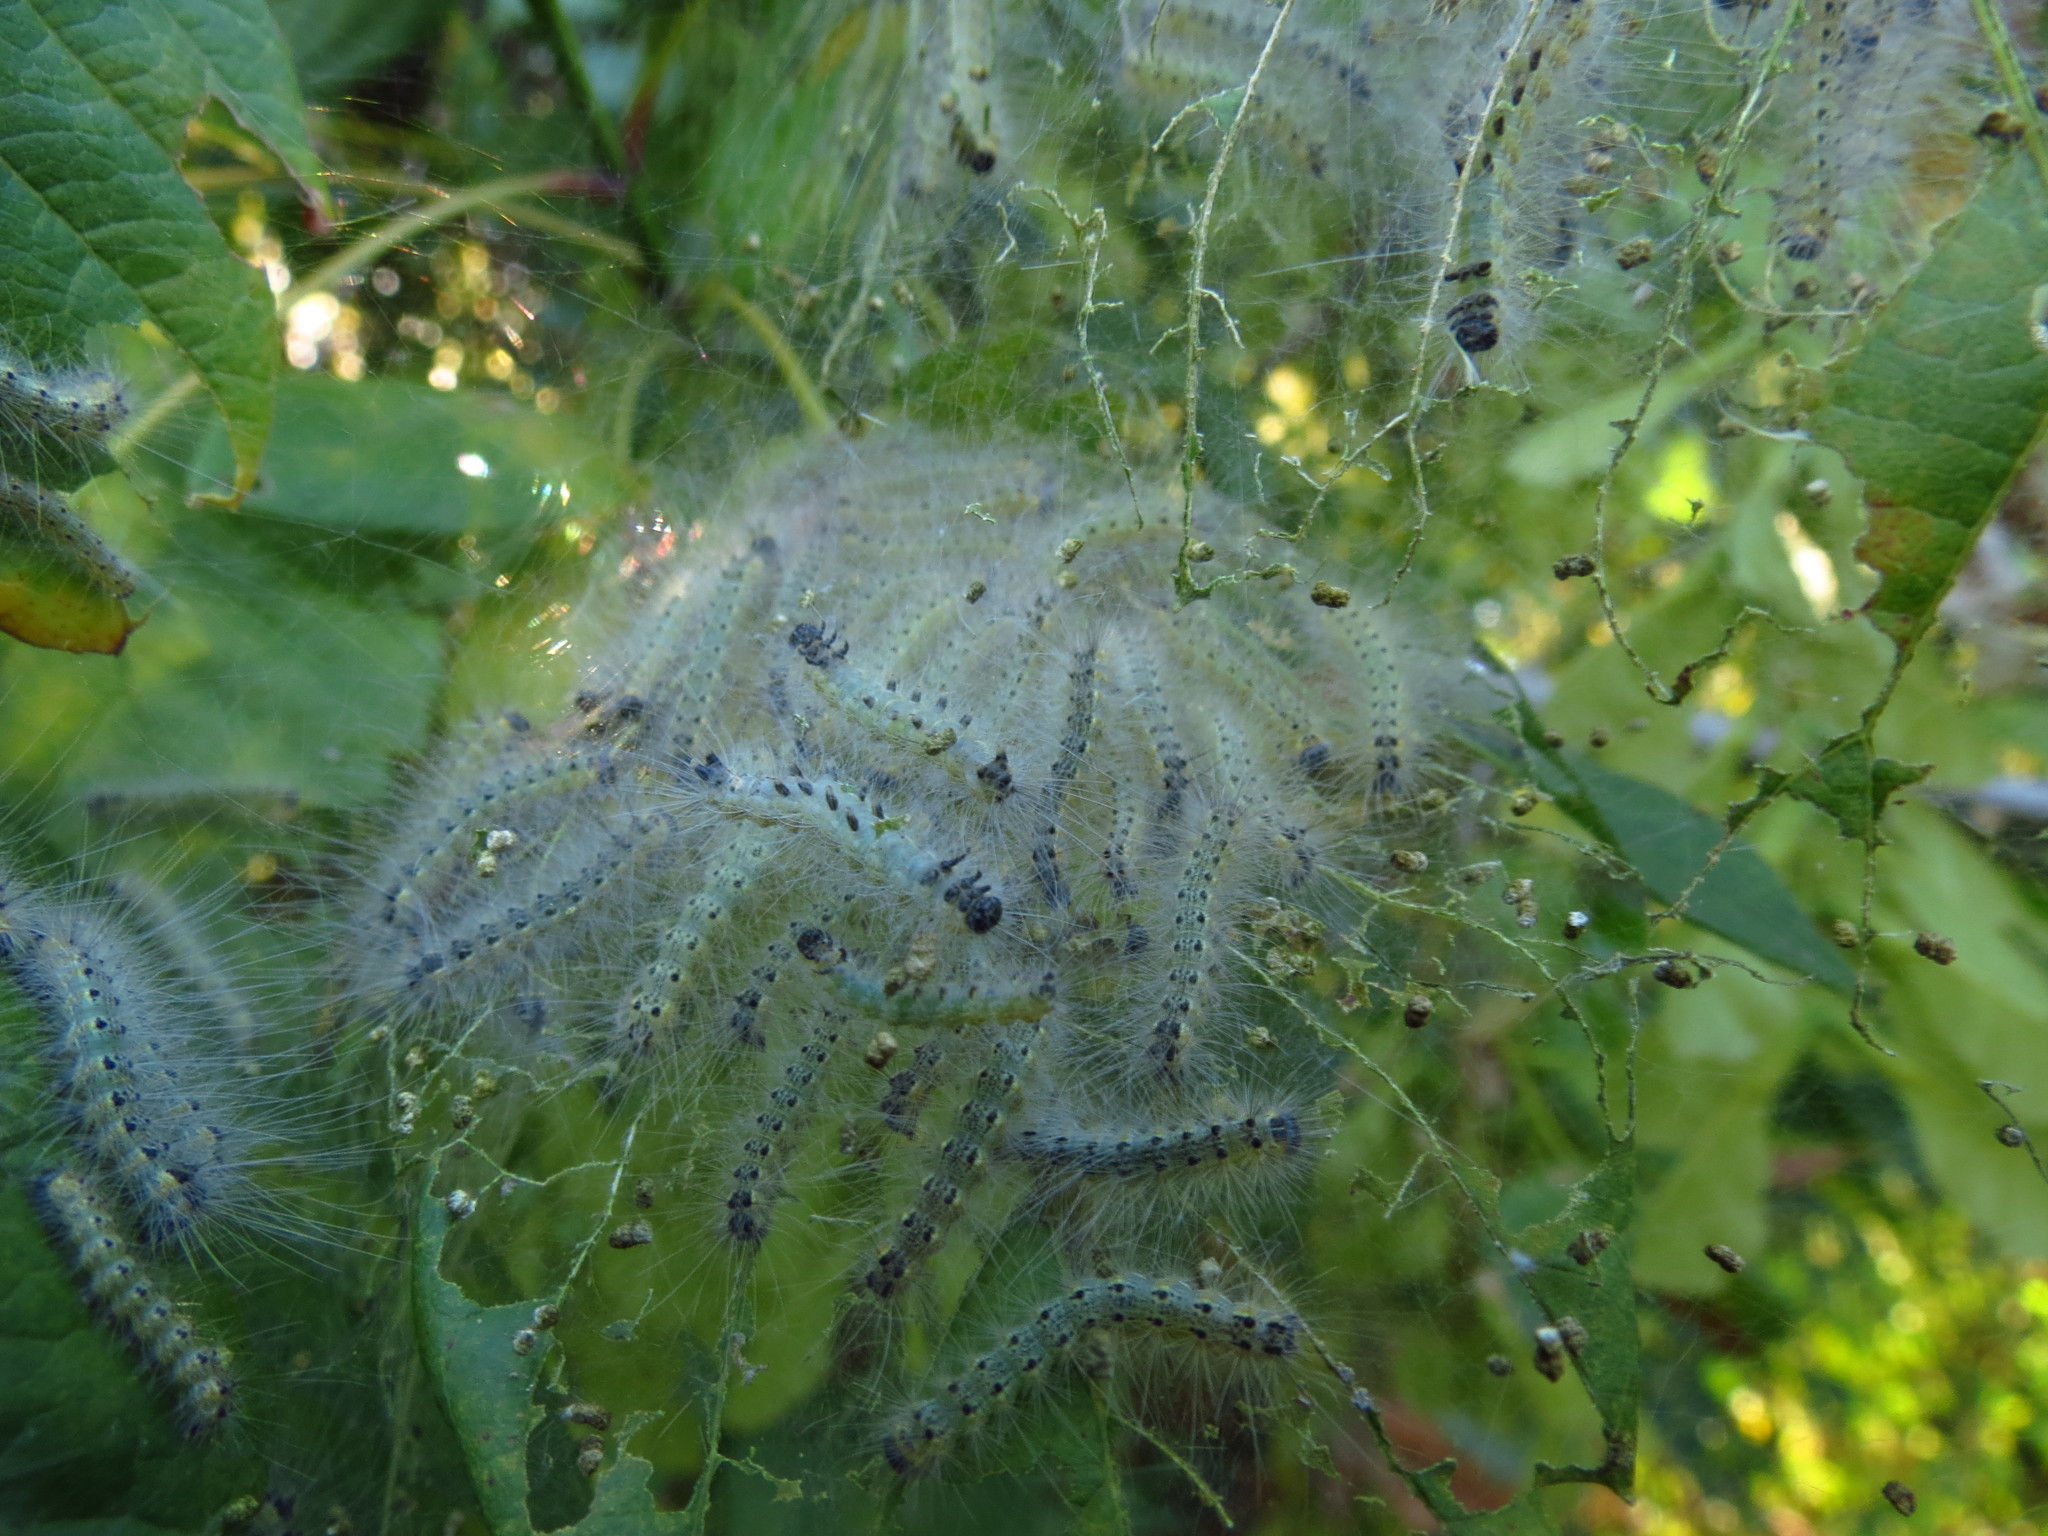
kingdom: Animalia
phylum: Arthropoda
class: Insecta
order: Lepidoptera
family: Erebidae
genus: Hyphantria
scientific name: Hyphantria cunea
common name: American white moth
